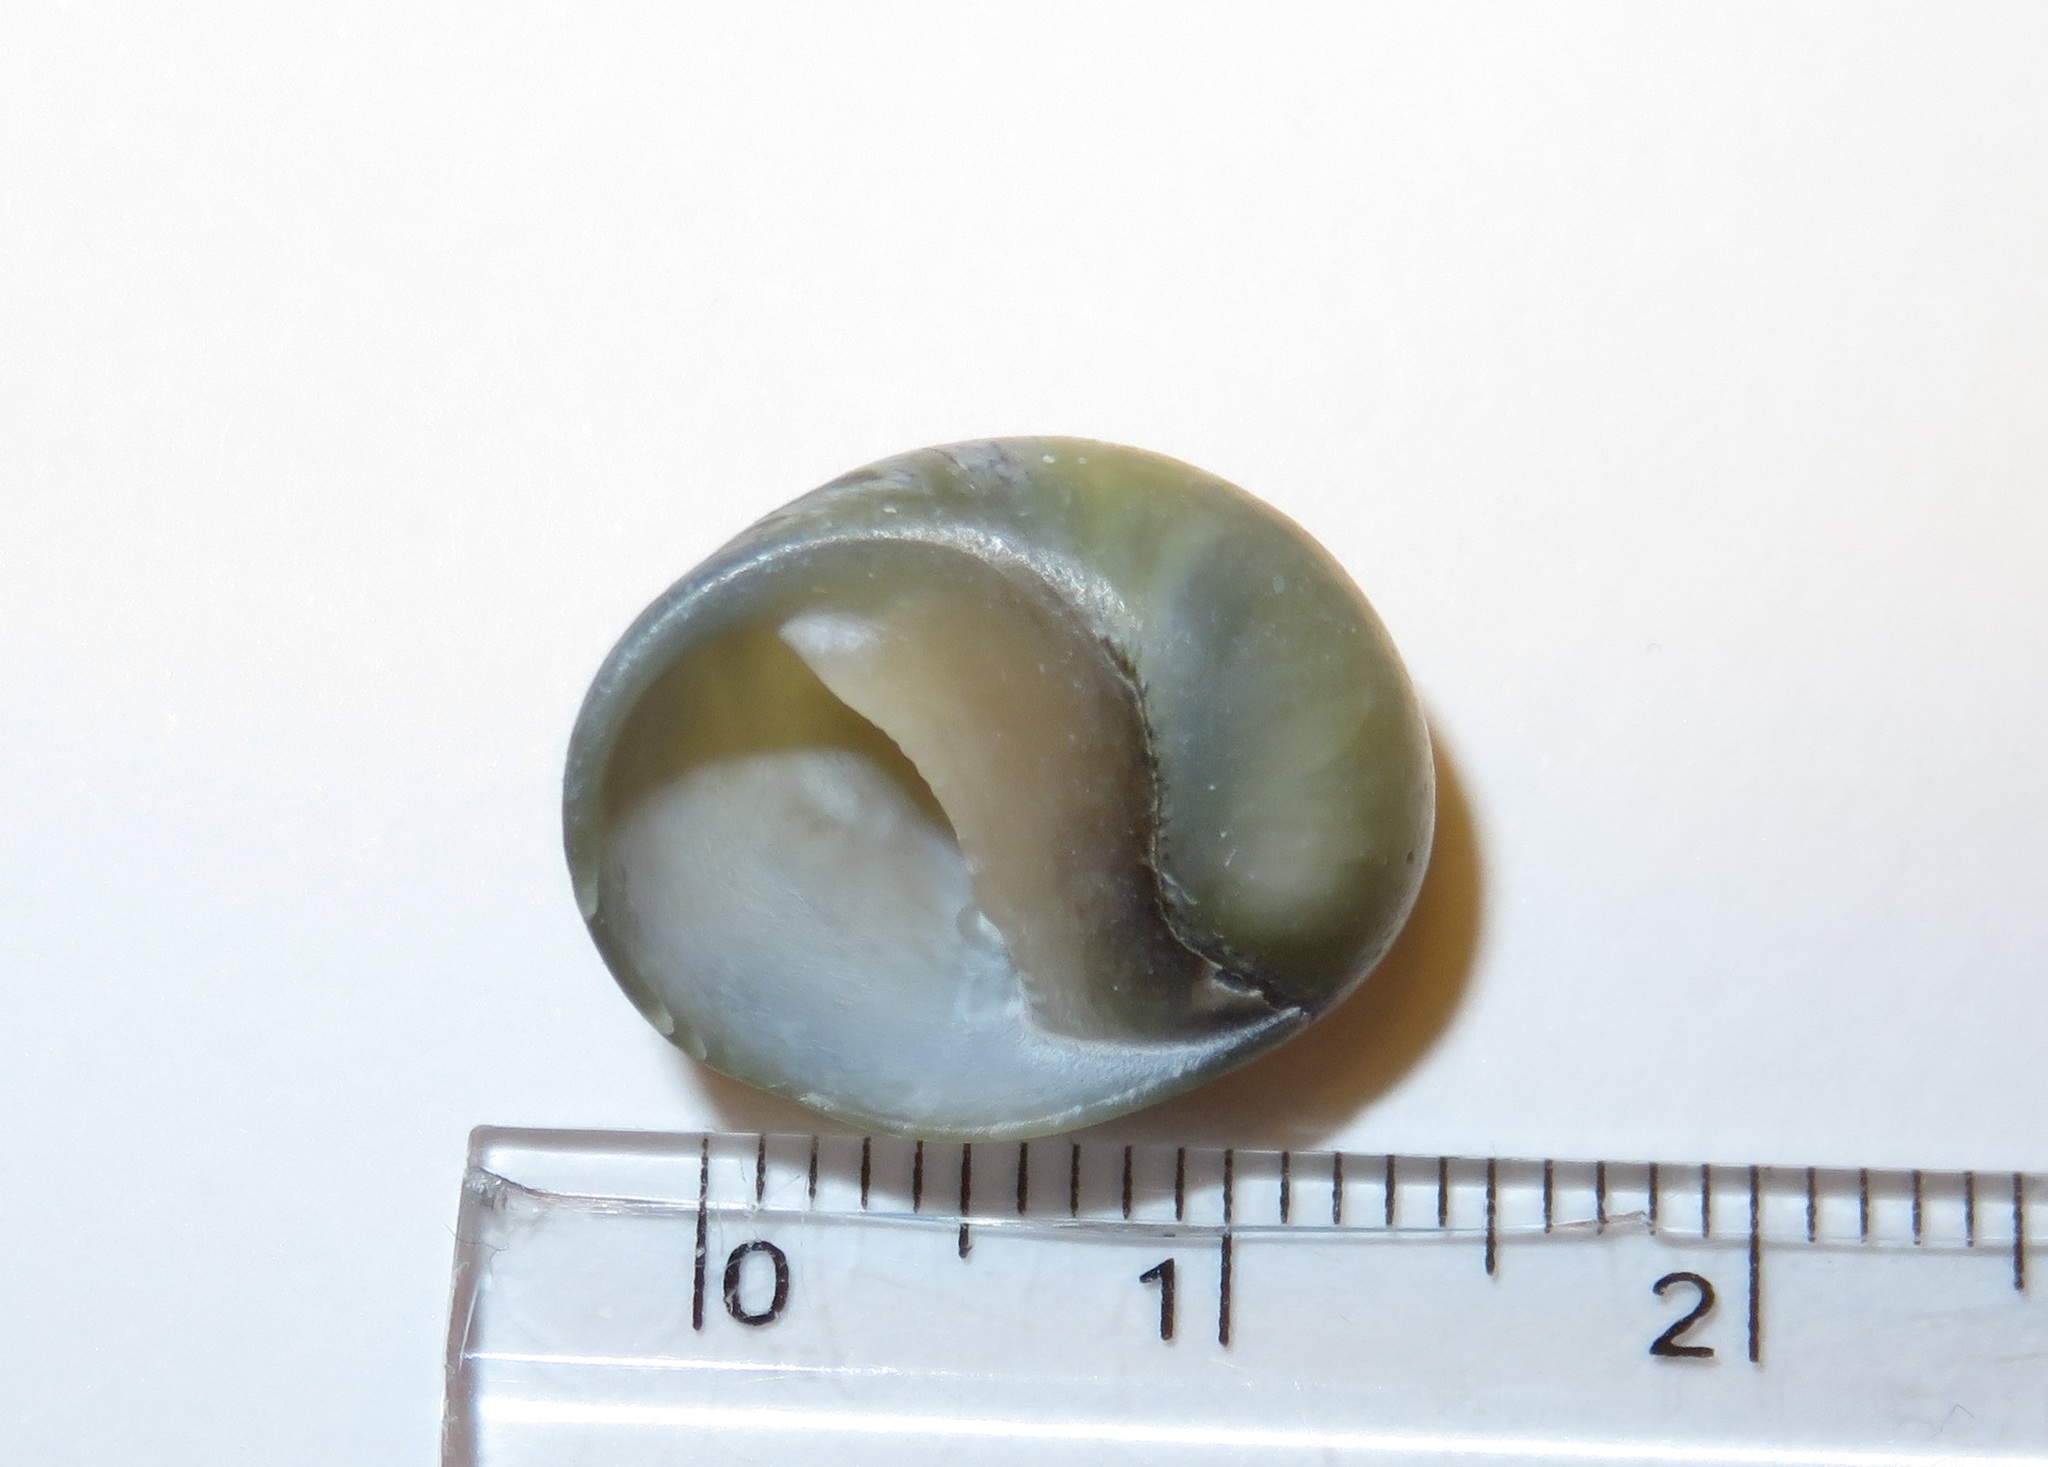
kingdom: Animalia
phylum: Mollusca
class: Gastropoda
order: Cycloneritida
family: Neritidae
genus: Nerita
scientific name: Nerita japonica
